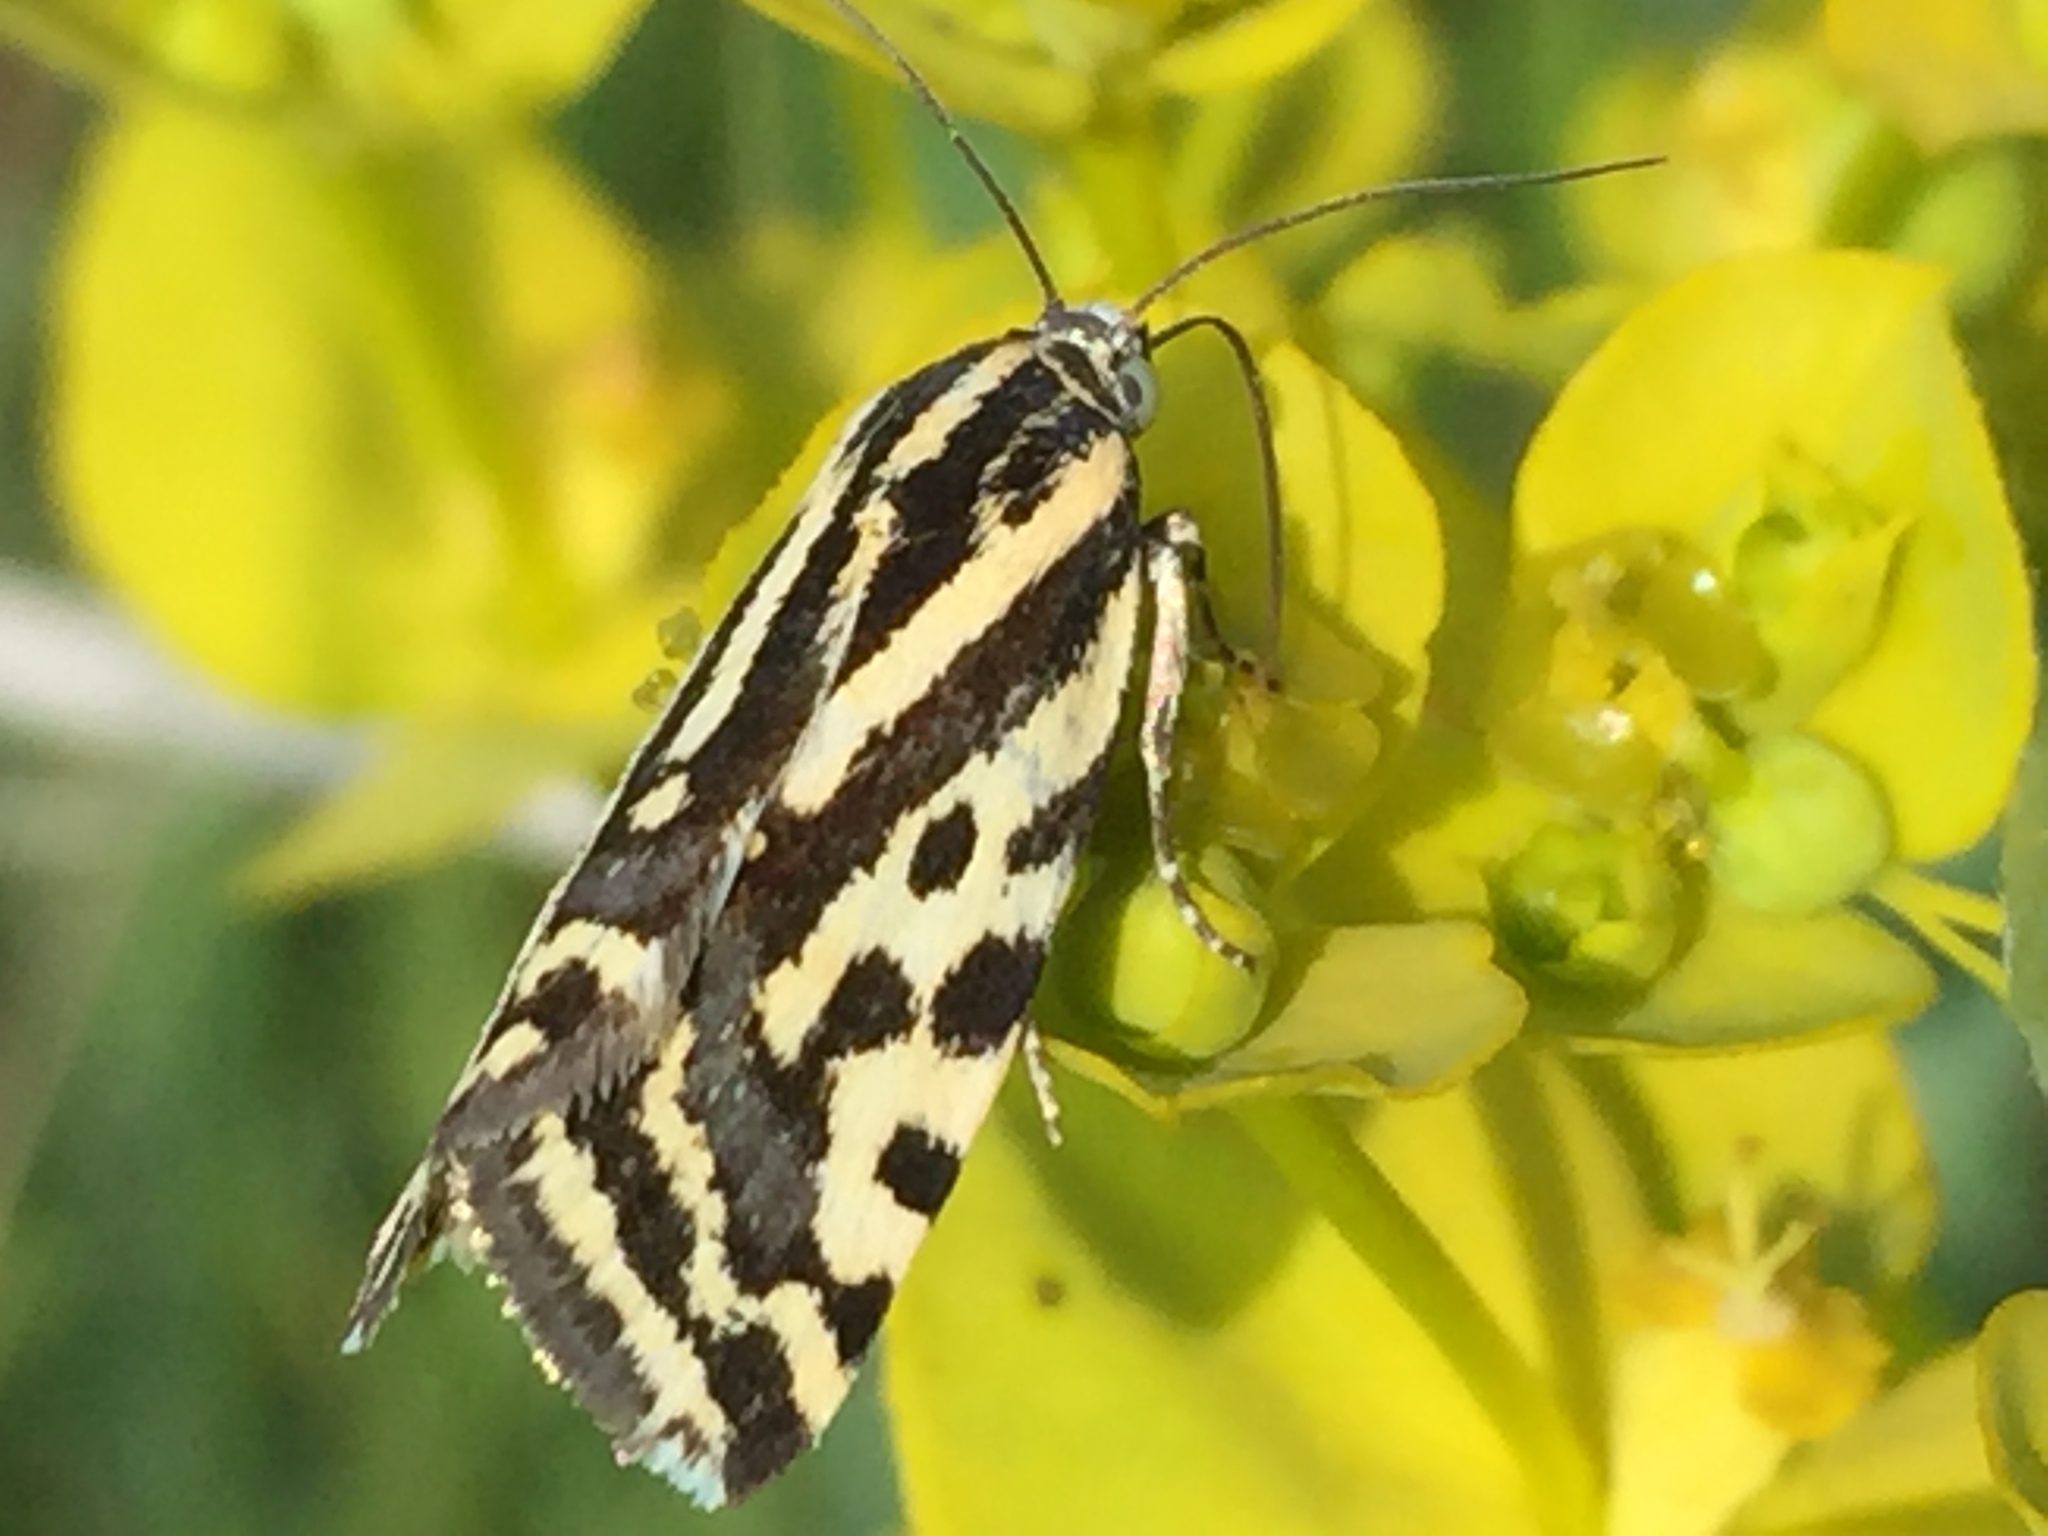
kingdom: Animalia
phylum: Arthropoda
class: Insecta
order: Lepidoptera
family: Noctuidae
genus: Acontia
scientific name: Acontia trabealis
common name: Spotted sulphur
